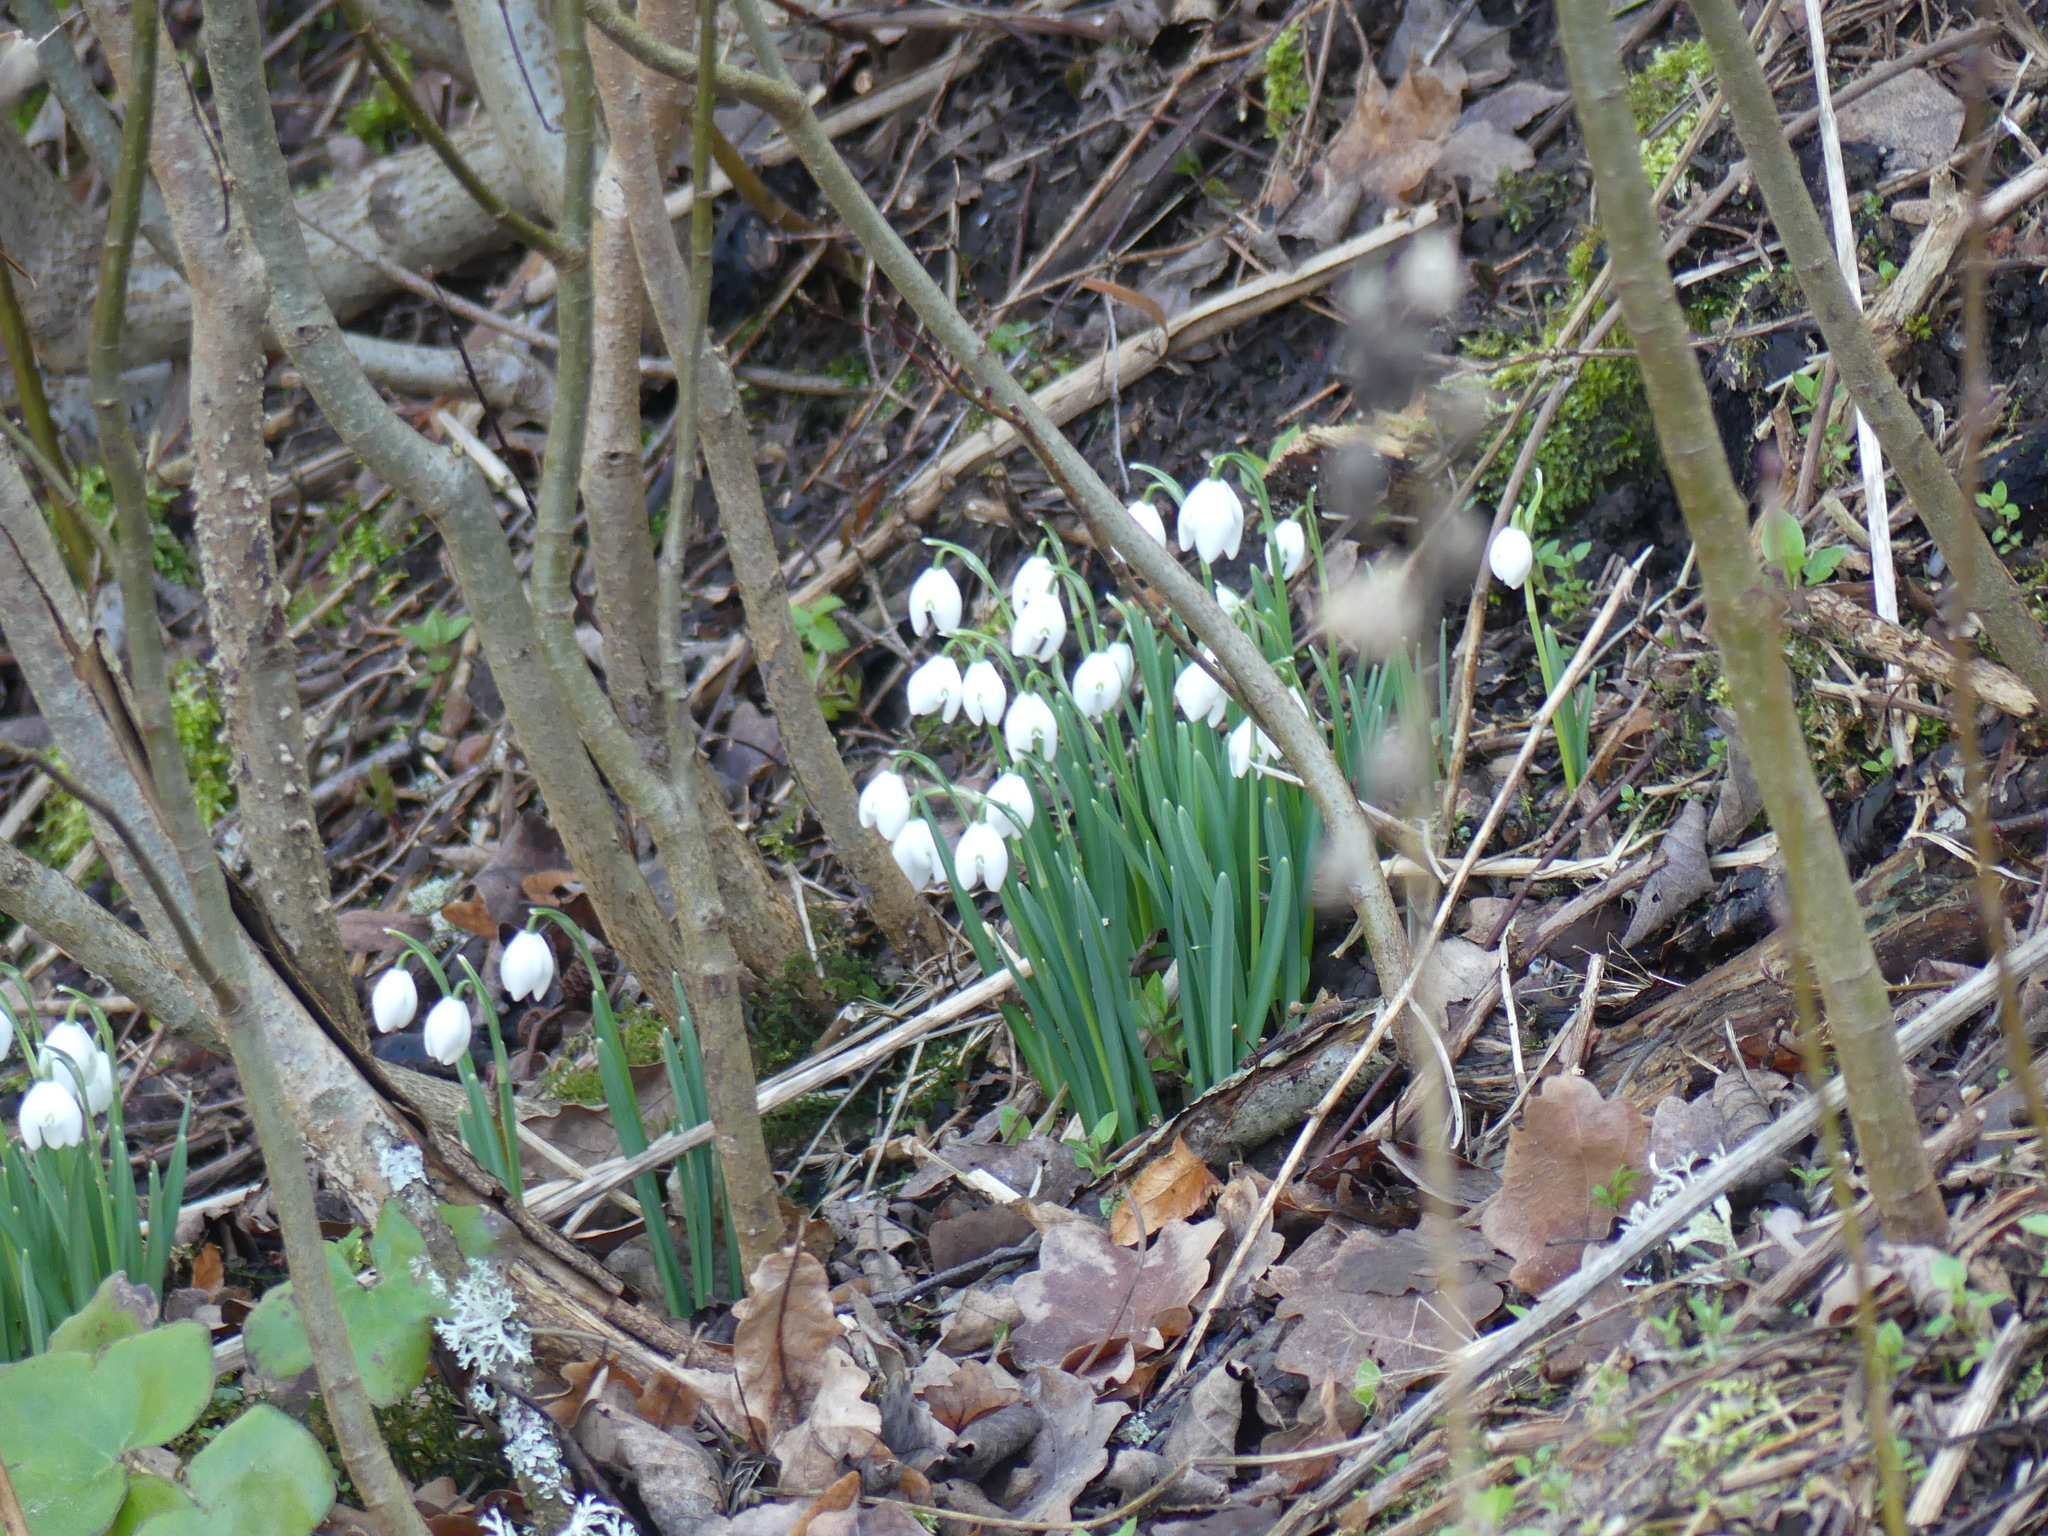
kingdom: Plantae
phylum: Tracheophyta
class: Liliopsida
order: Asparagales
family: Amaryllidaceae
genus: Galanthus
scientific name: Galanthus nivalis
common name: Snowdrop
